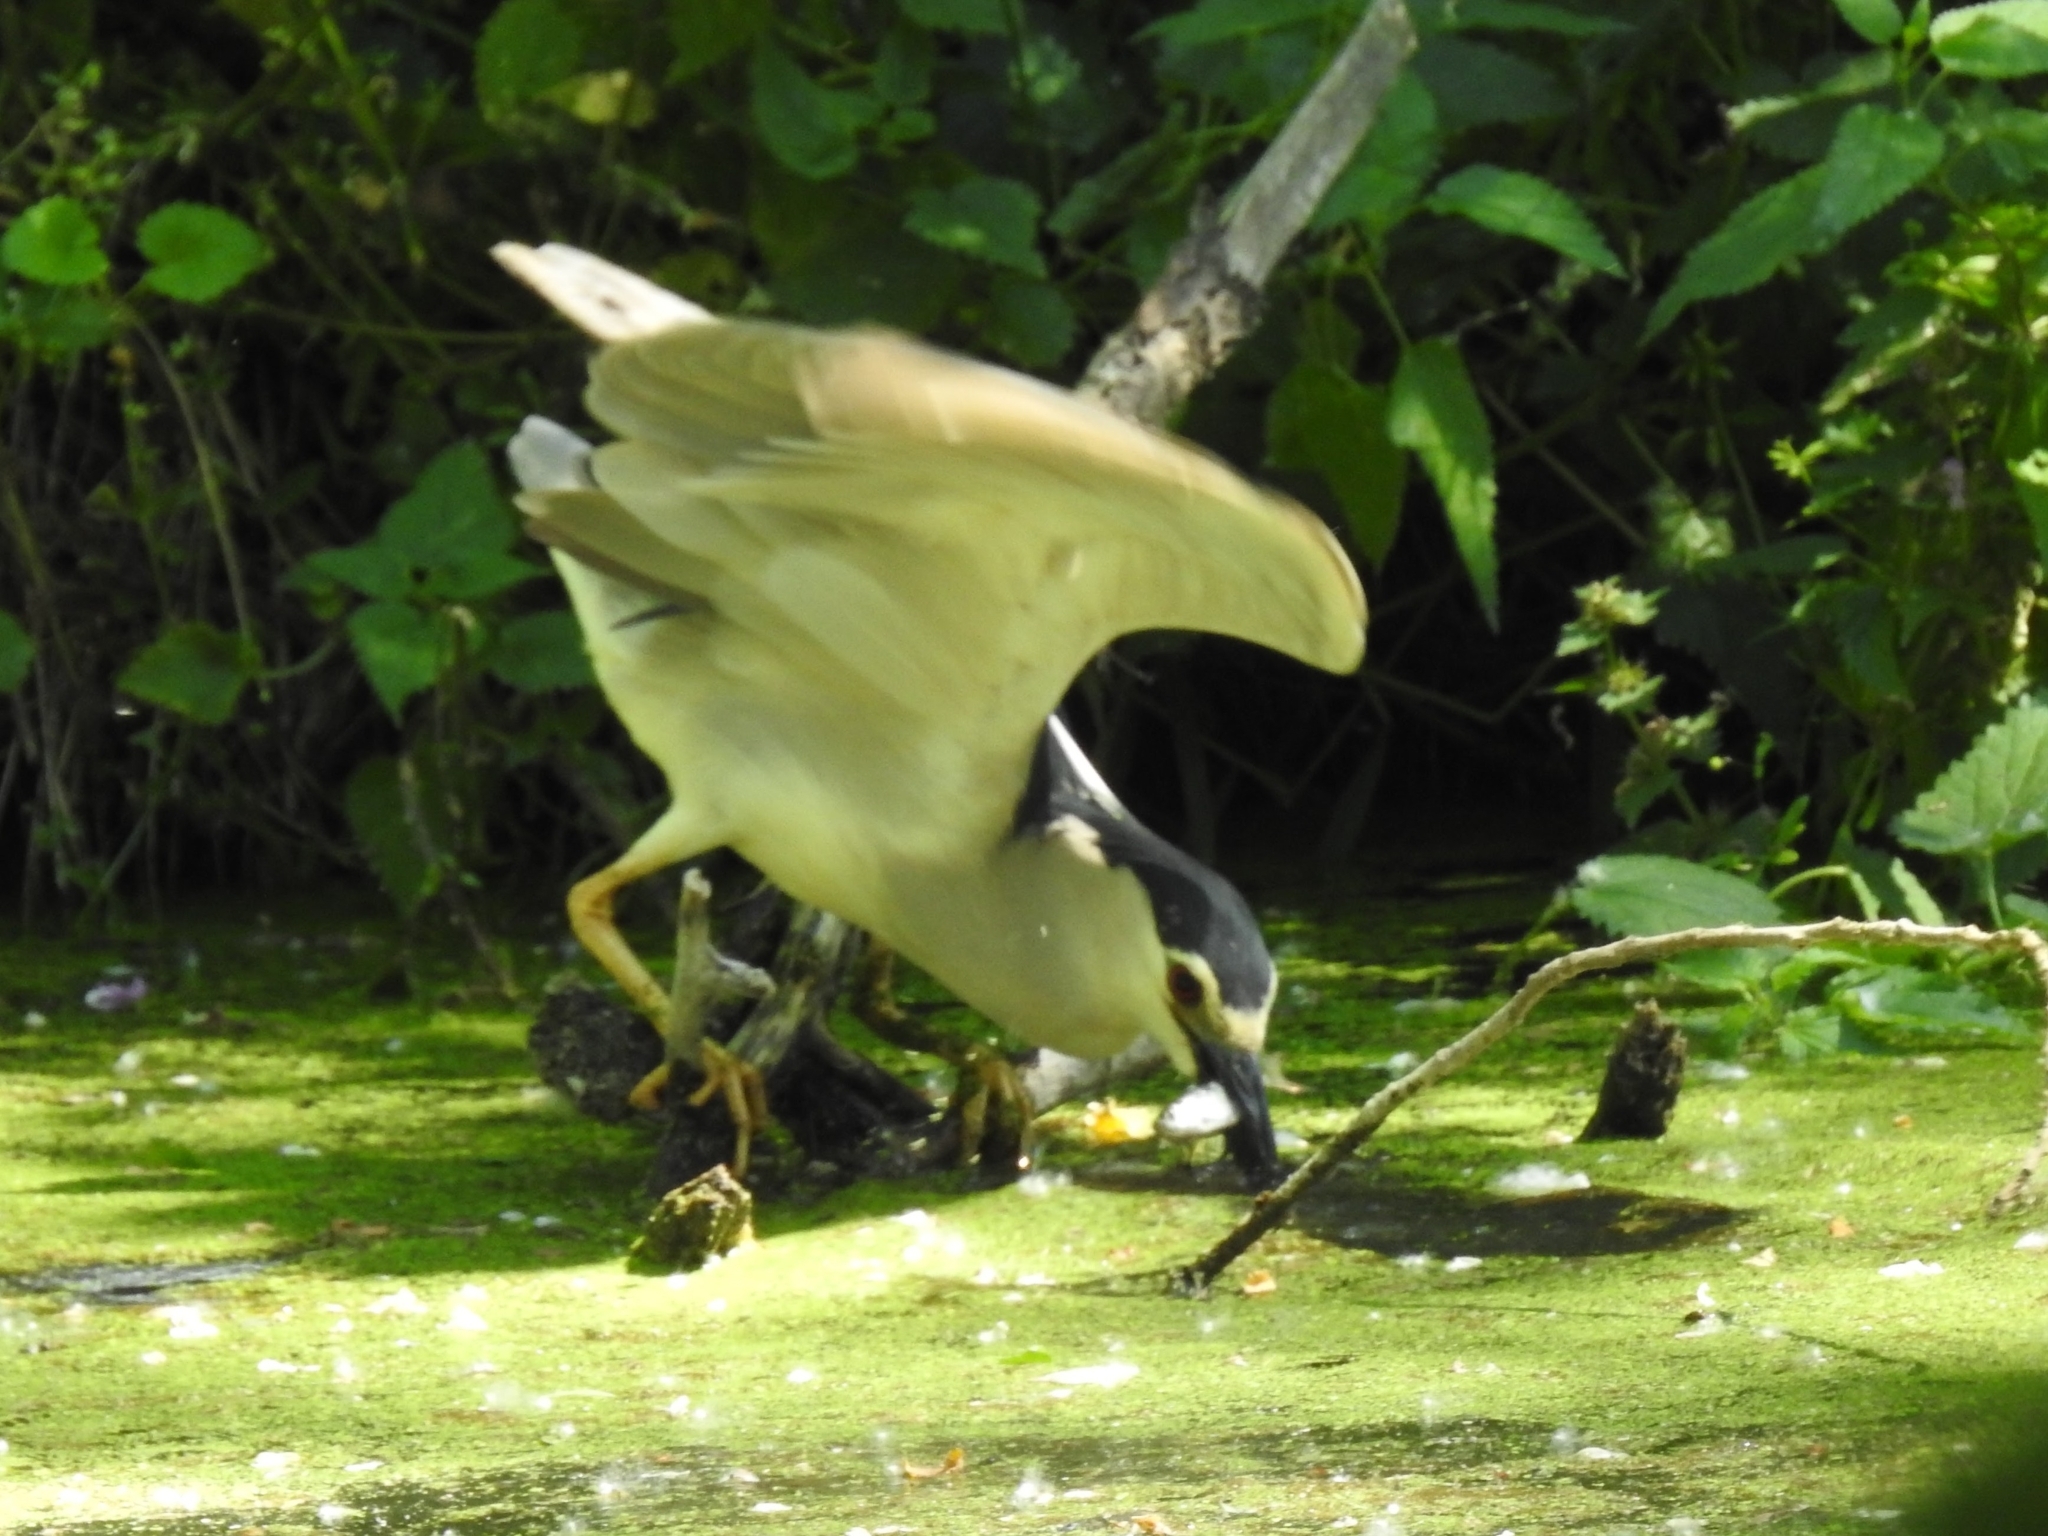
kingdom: Animalia
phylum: Chordata
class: Aves
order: Pelecaniformes
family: Ardeidae
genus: Nycticorax
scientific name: Nycticorax nycticorax
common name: Black-crowned night heron
